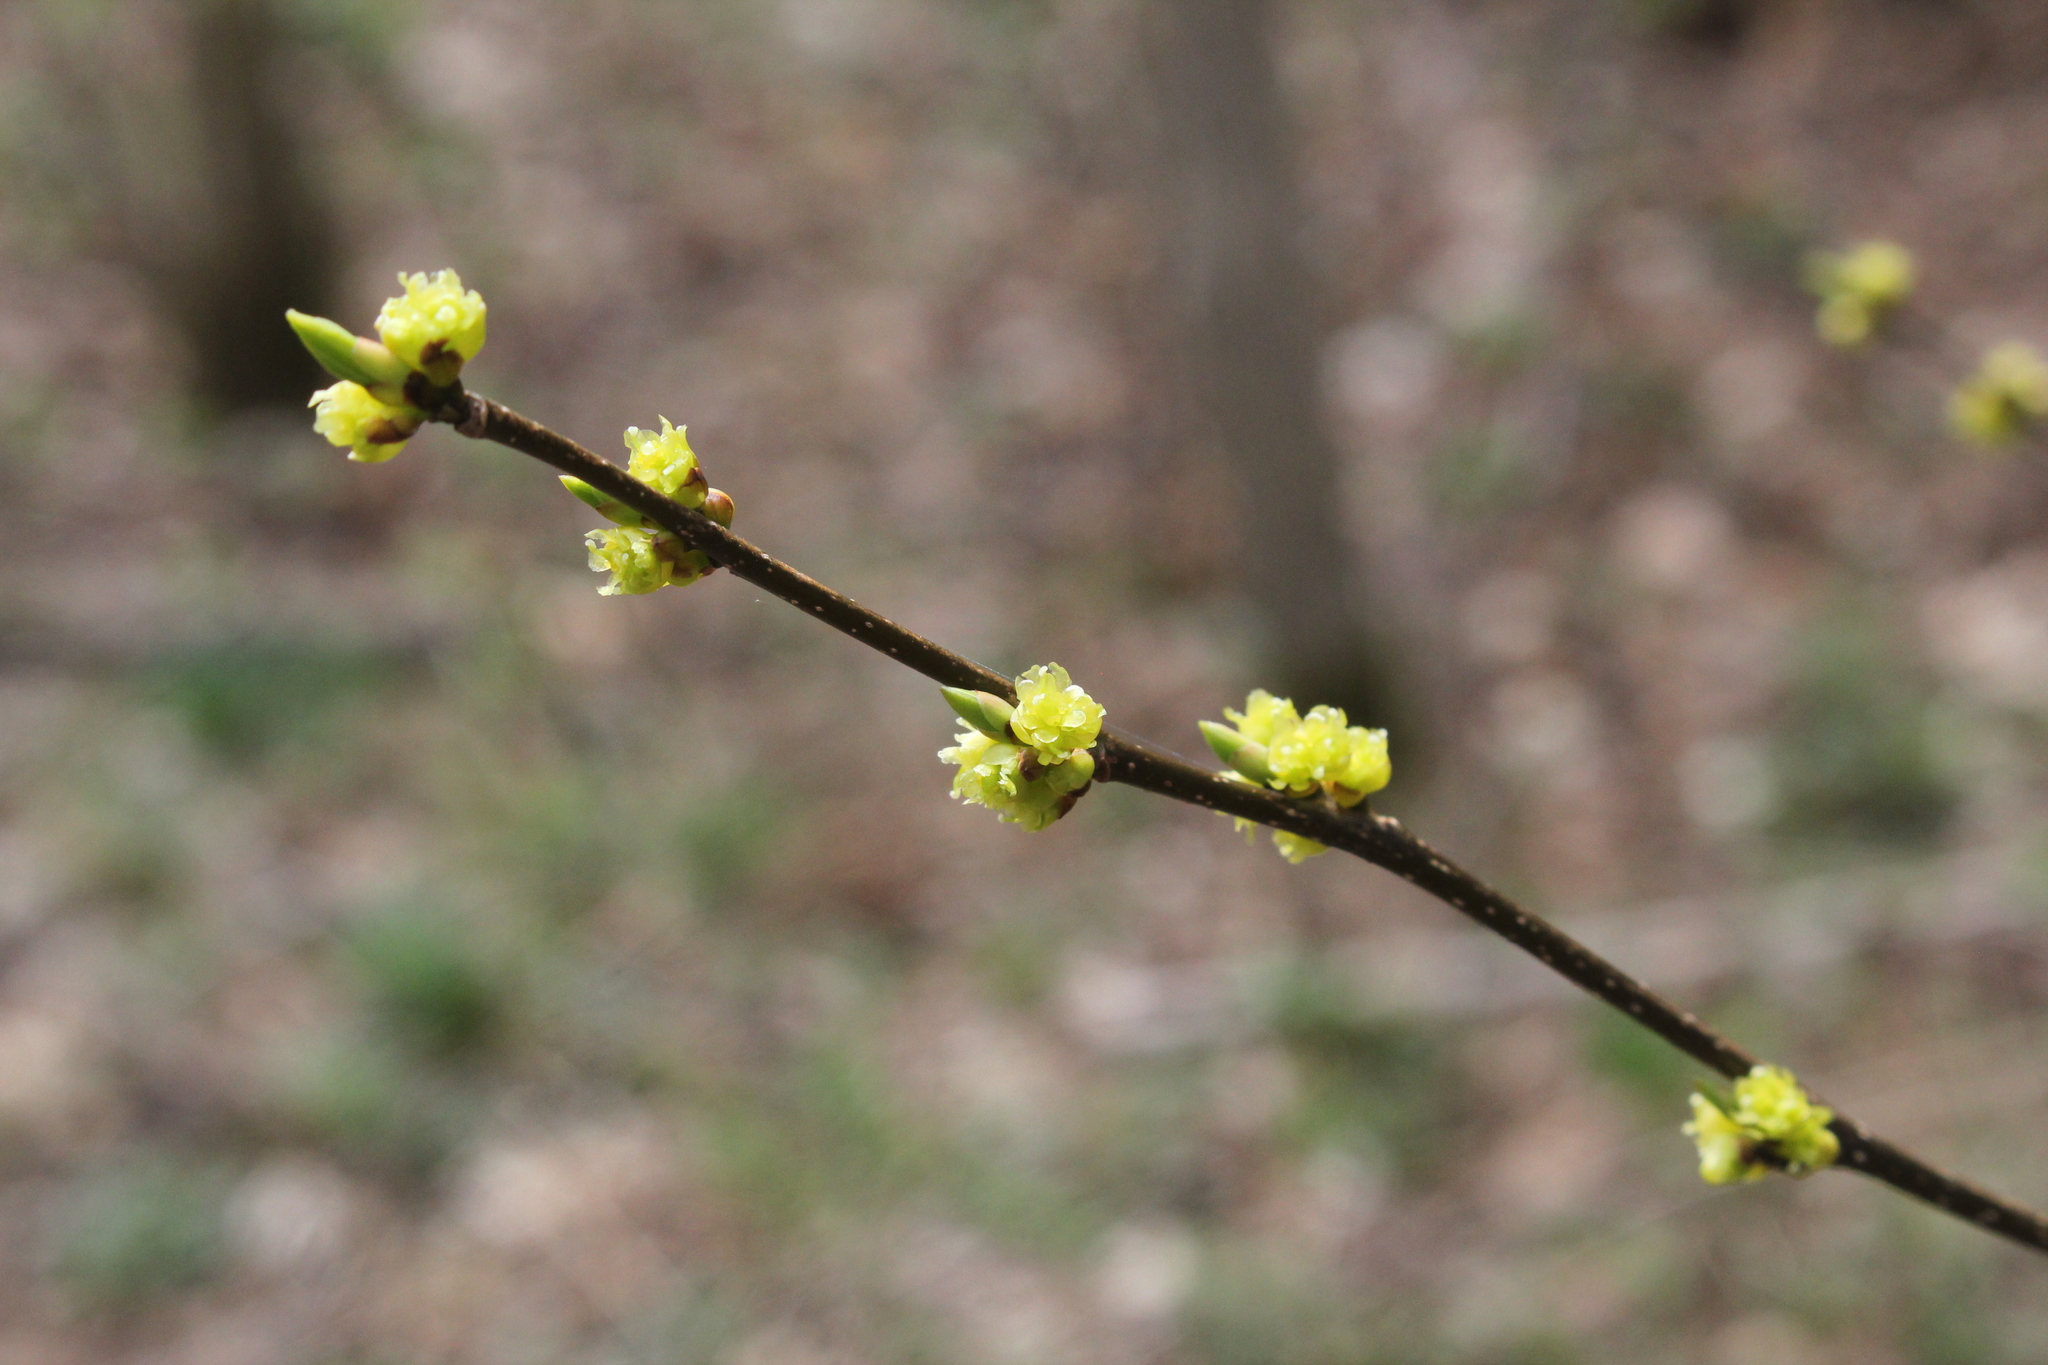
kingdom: Plantae
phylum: Tracheophyta
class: Magnoliopsida
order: Laurales
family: Lauraceae
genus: Lindera
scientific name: Lindera benzoin
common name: Spicebush
